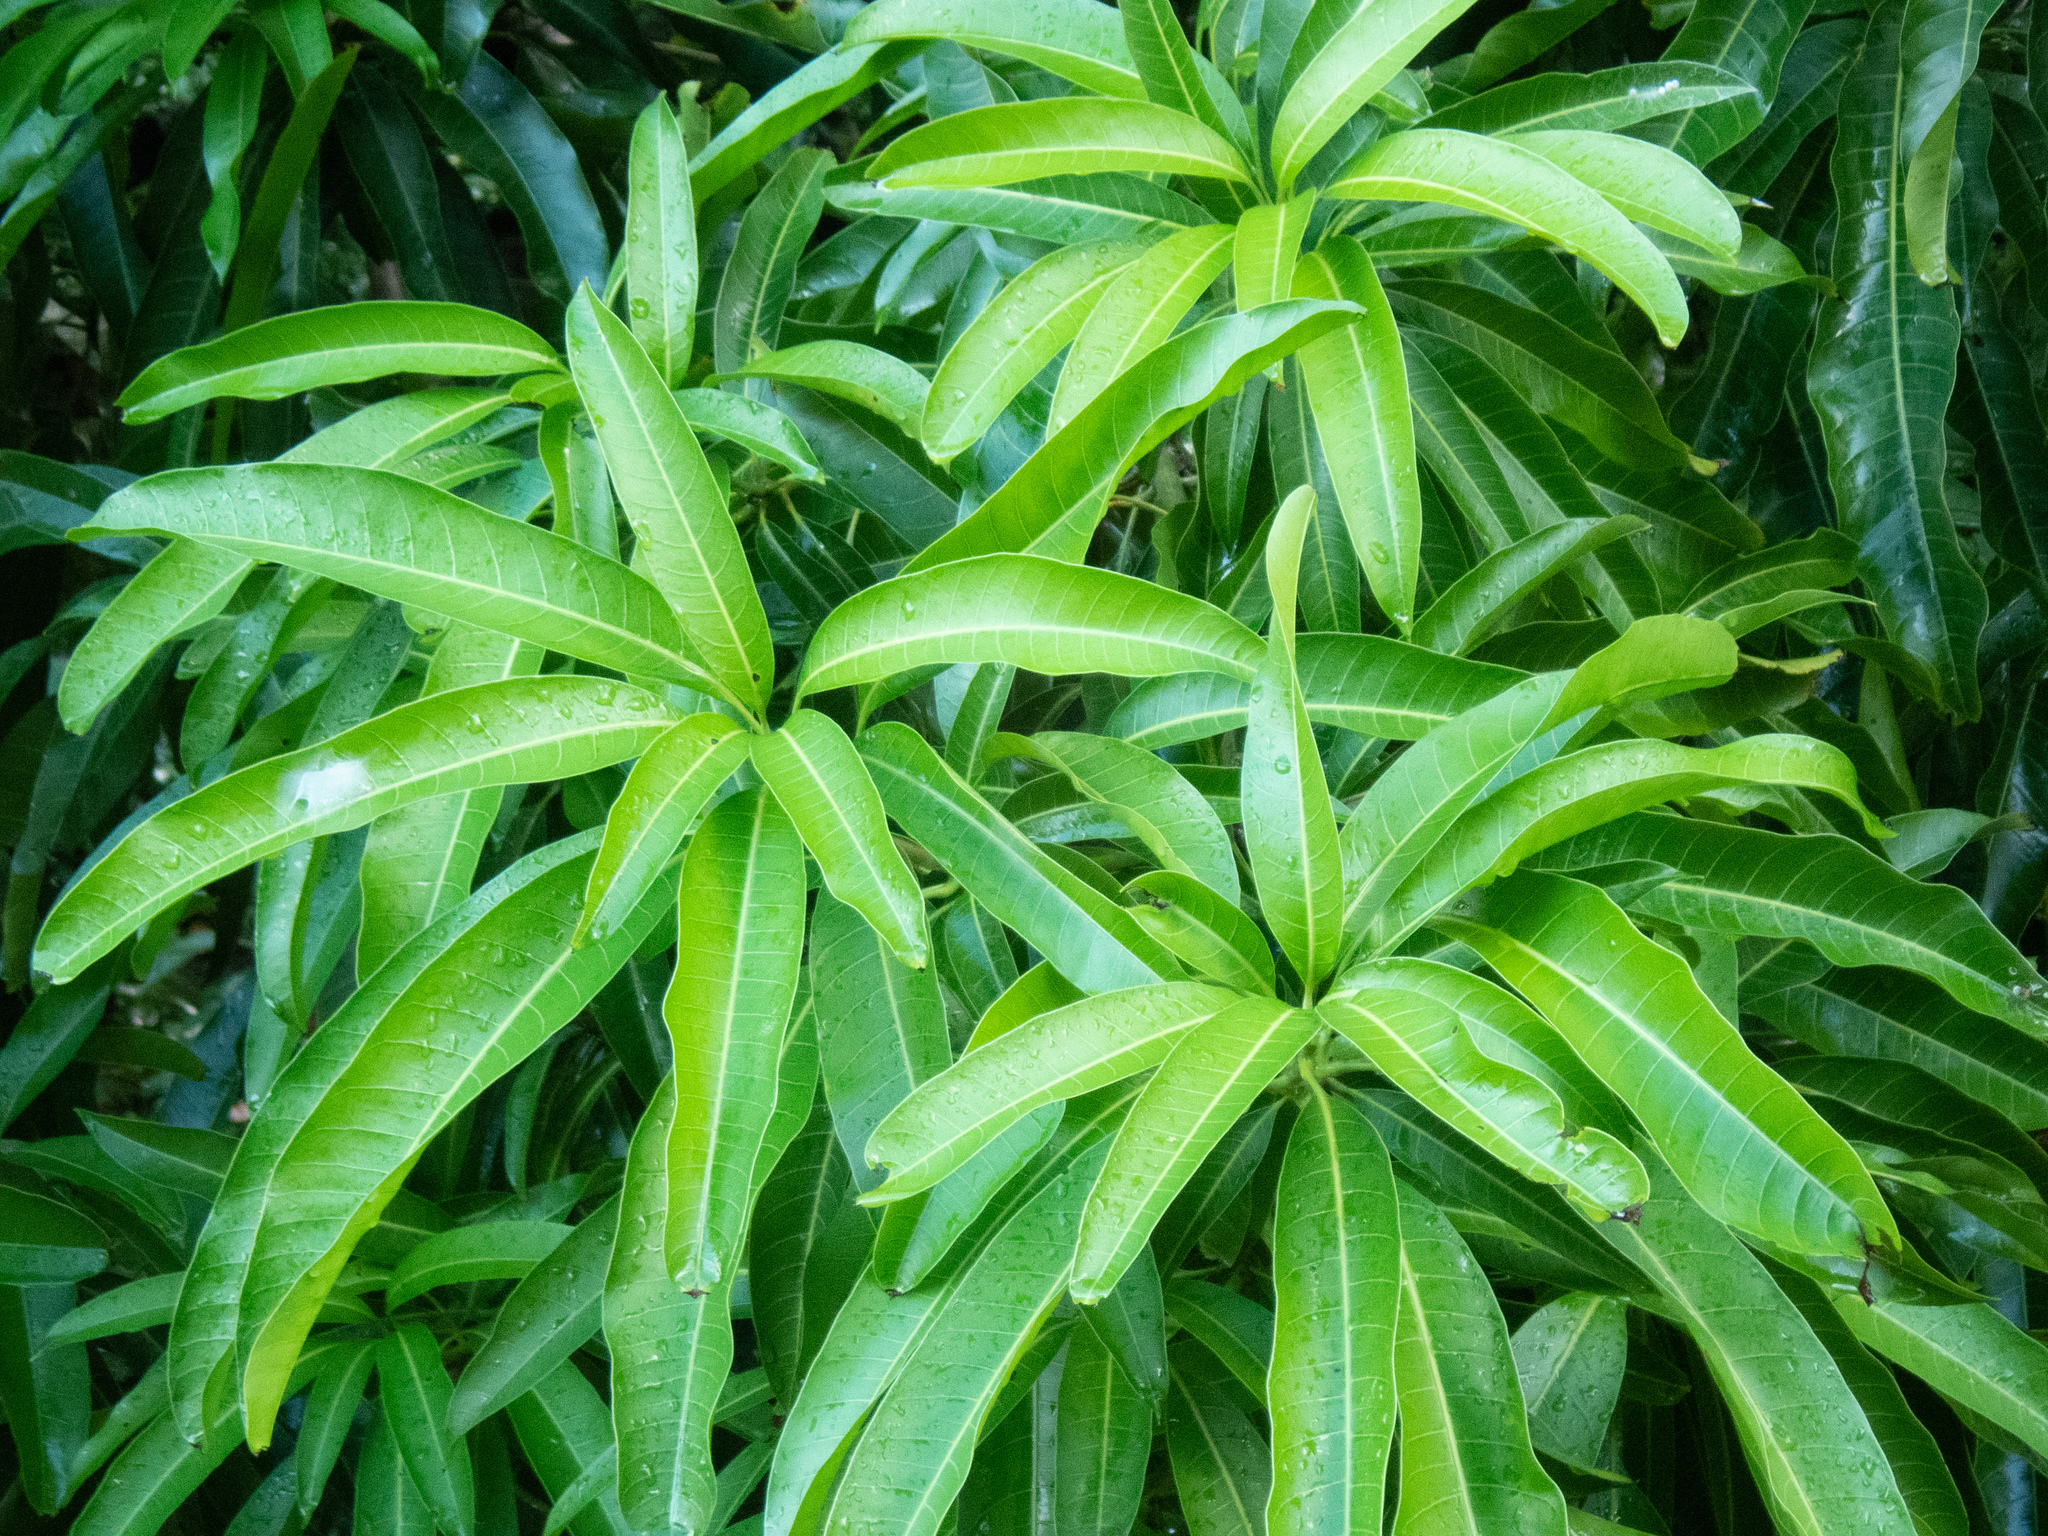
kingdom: Plantae
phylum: Tracheophyta
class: Magnoliopsida
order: Sapindales
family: Anacardiaceae
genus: Mangifera
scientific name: Mangifera indica
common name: Mango
